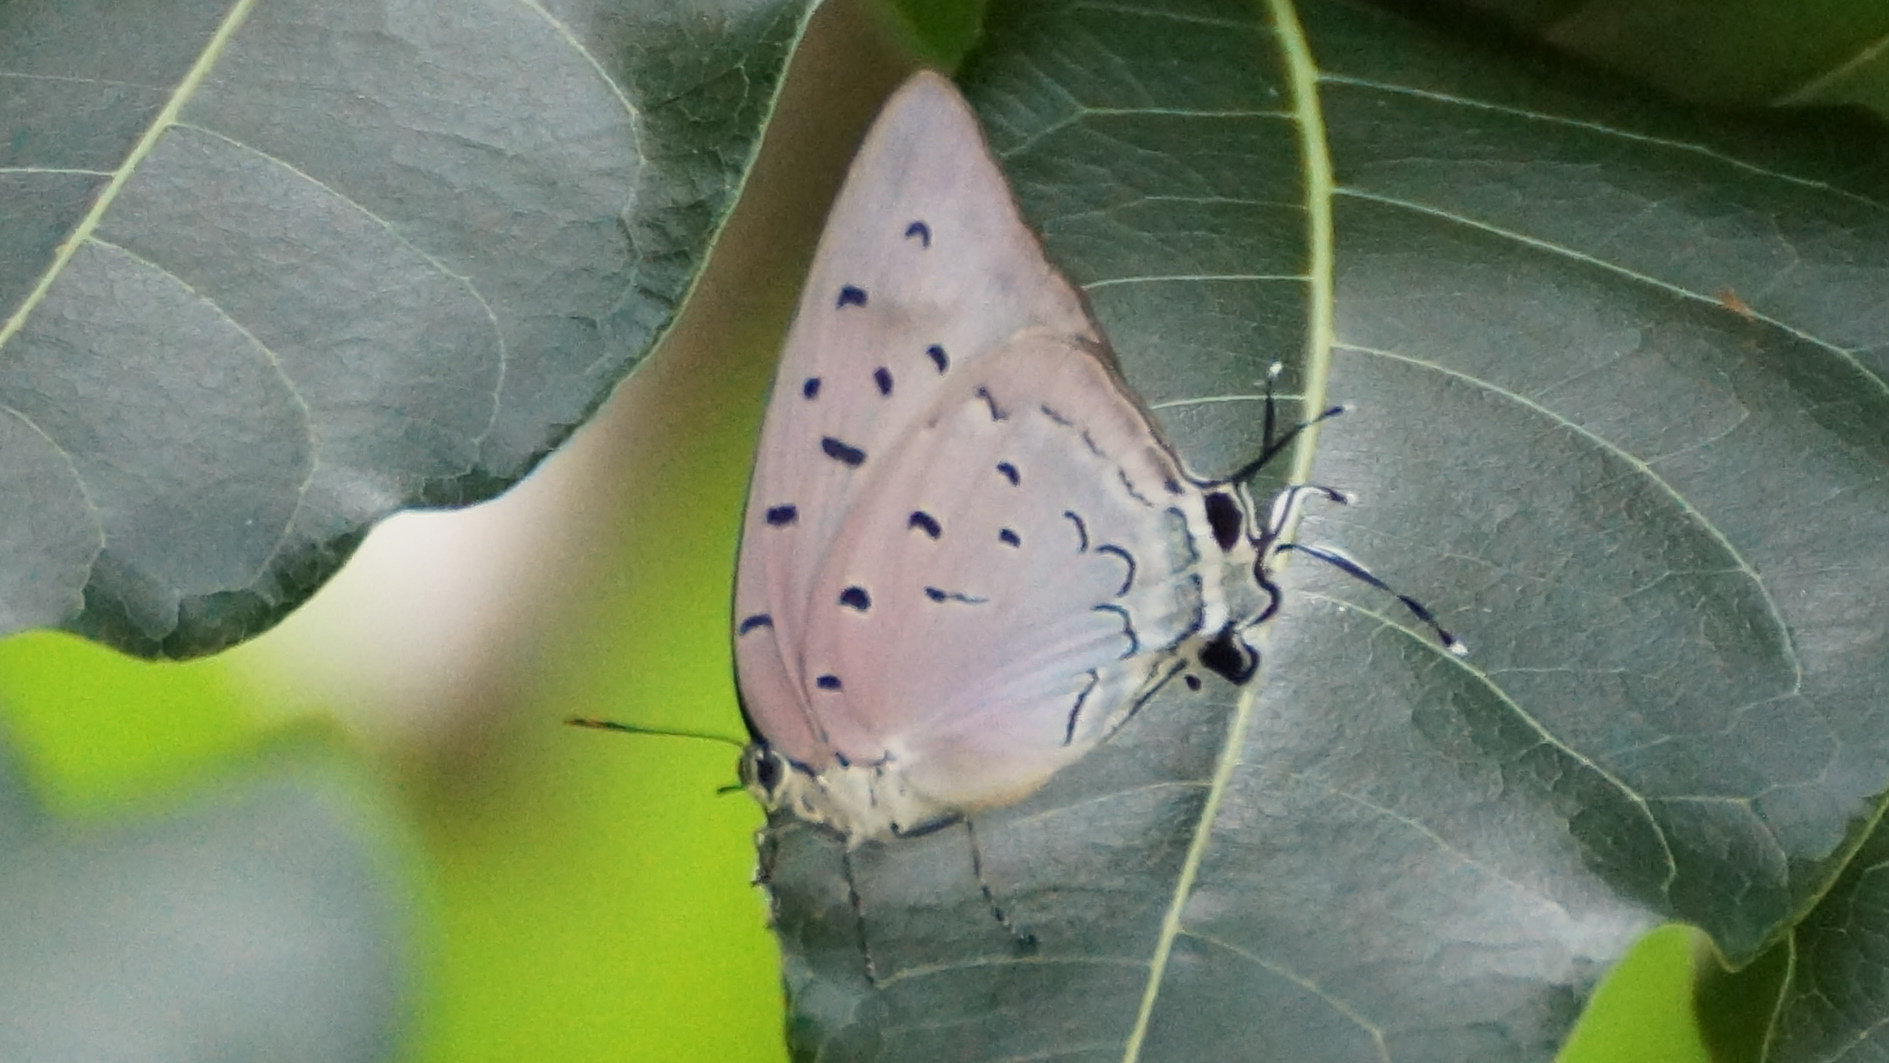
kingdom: Animalia
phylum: Arthropoda
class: Insecta
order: Lepidoptera
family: Lycaenidae
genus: Pseudolycaena
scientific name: Pseudolycaena damo
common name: Sky-blue hairstreak
